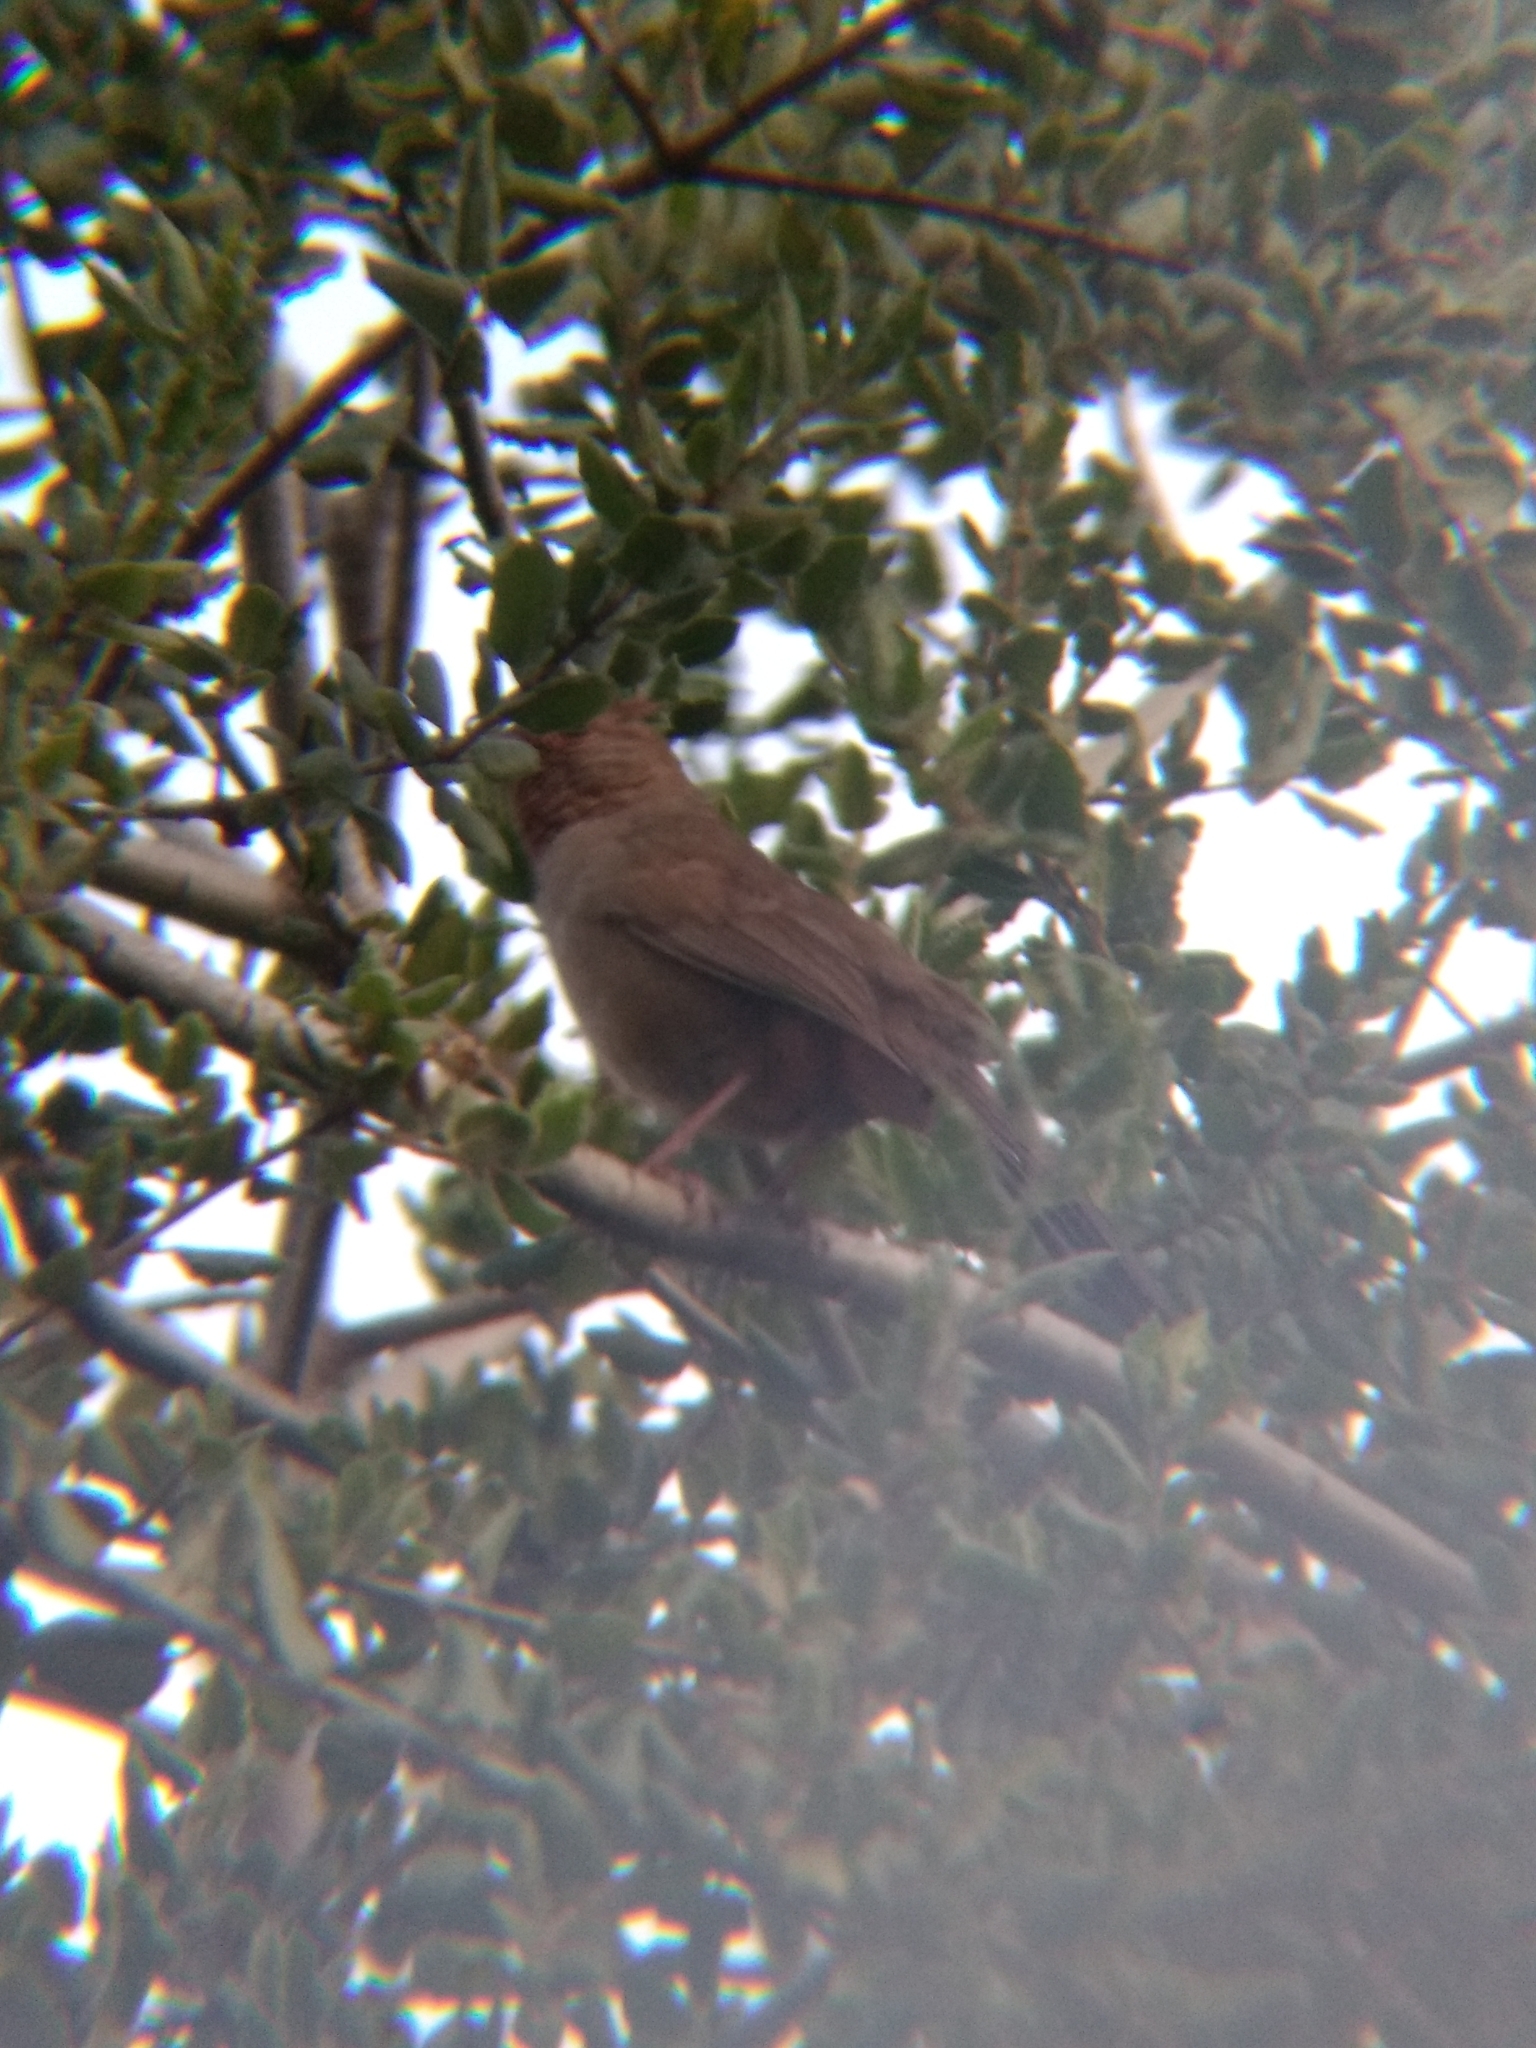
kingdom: Animalia
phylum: Chordata
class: Aves
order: Passeriformes
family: Passerellidae
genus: Melozone
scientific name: Melozone crissalis
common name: California towhee
